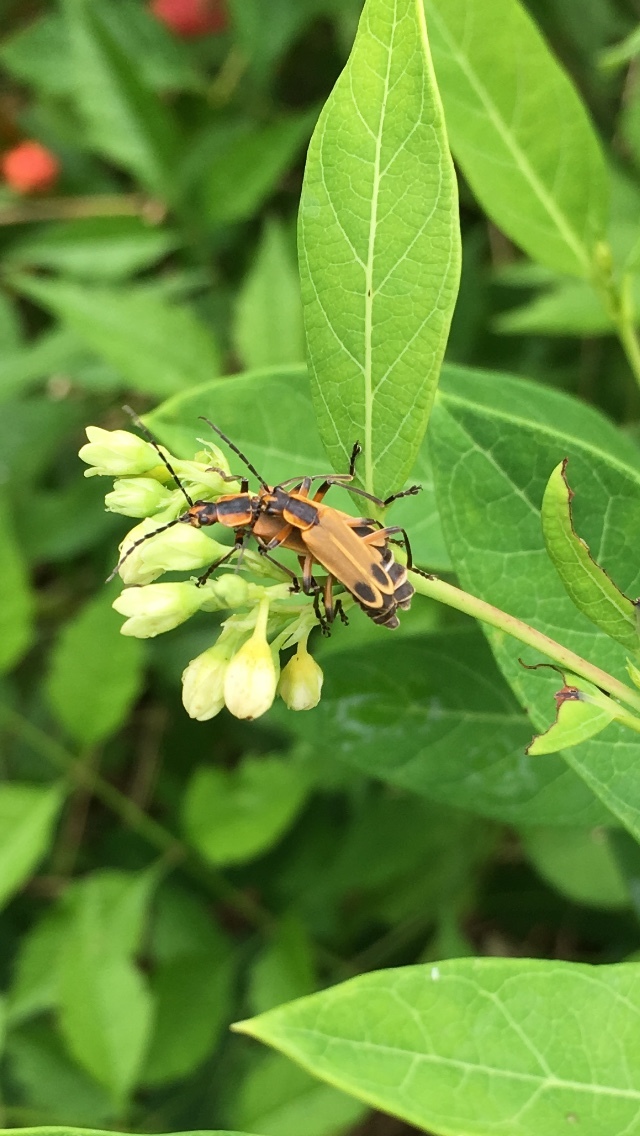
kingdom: Animalia
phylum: Arthropoda
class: Insecta
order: Coleoptera
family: Cantharidae
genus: Chauliognathus
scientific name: Chauliognathus marginatus
